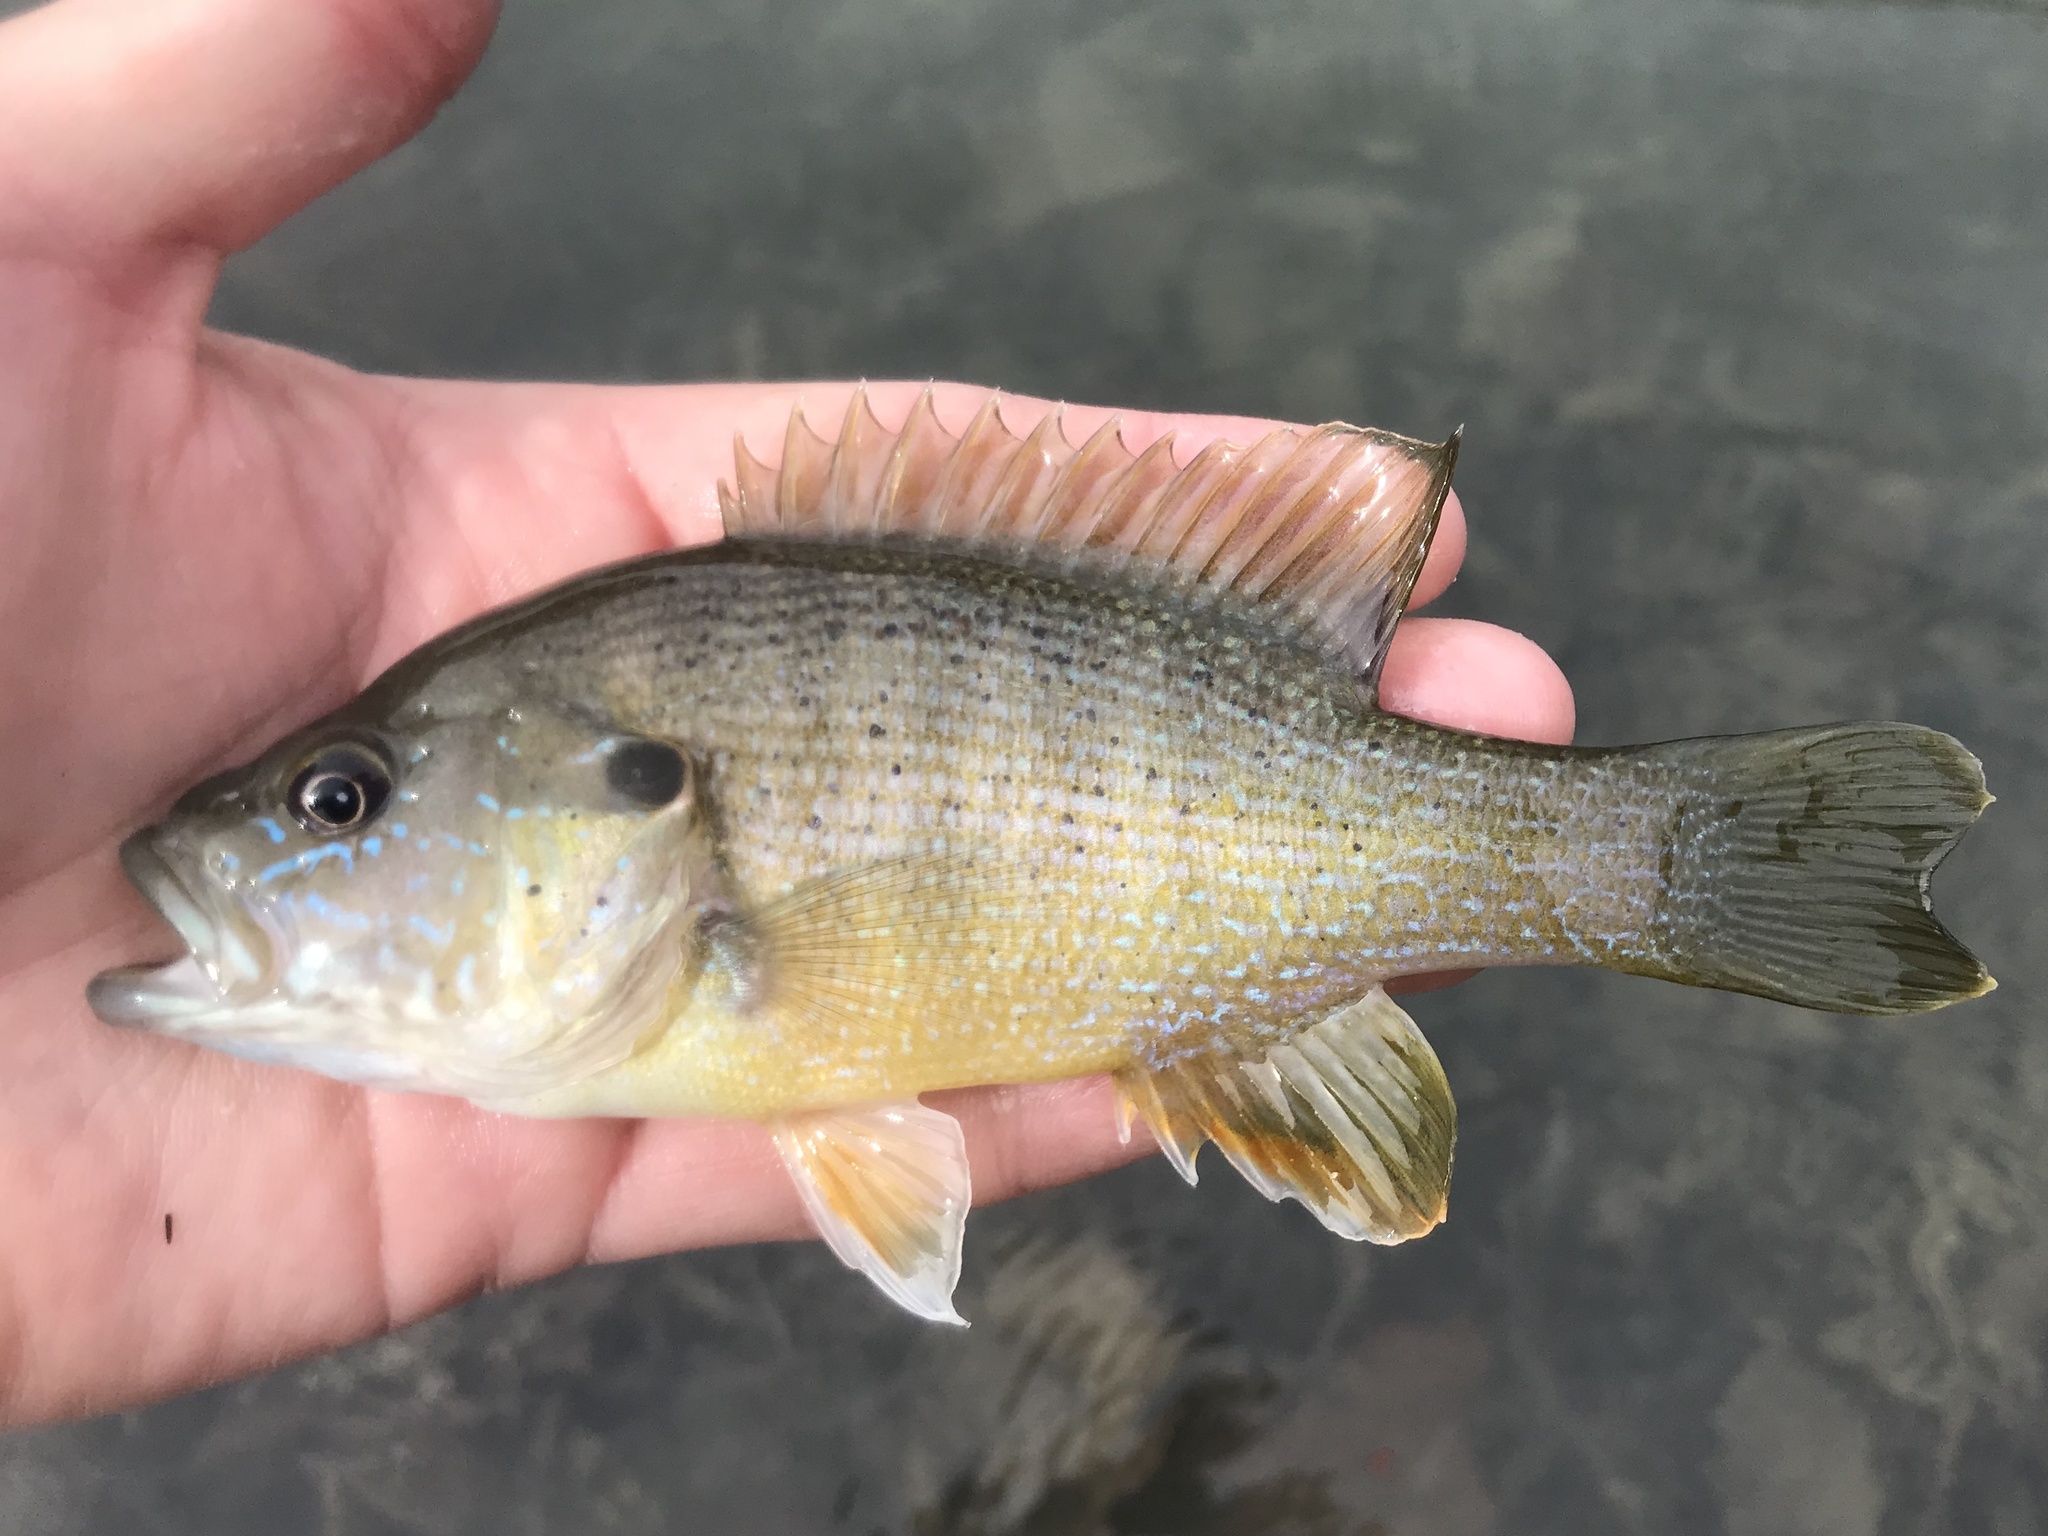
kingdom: Animalia
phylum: Chordata
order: Perciformes
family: Centrarchidae
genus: Lepomis
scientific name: Lepomis cyanellus
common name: Green sunfish
